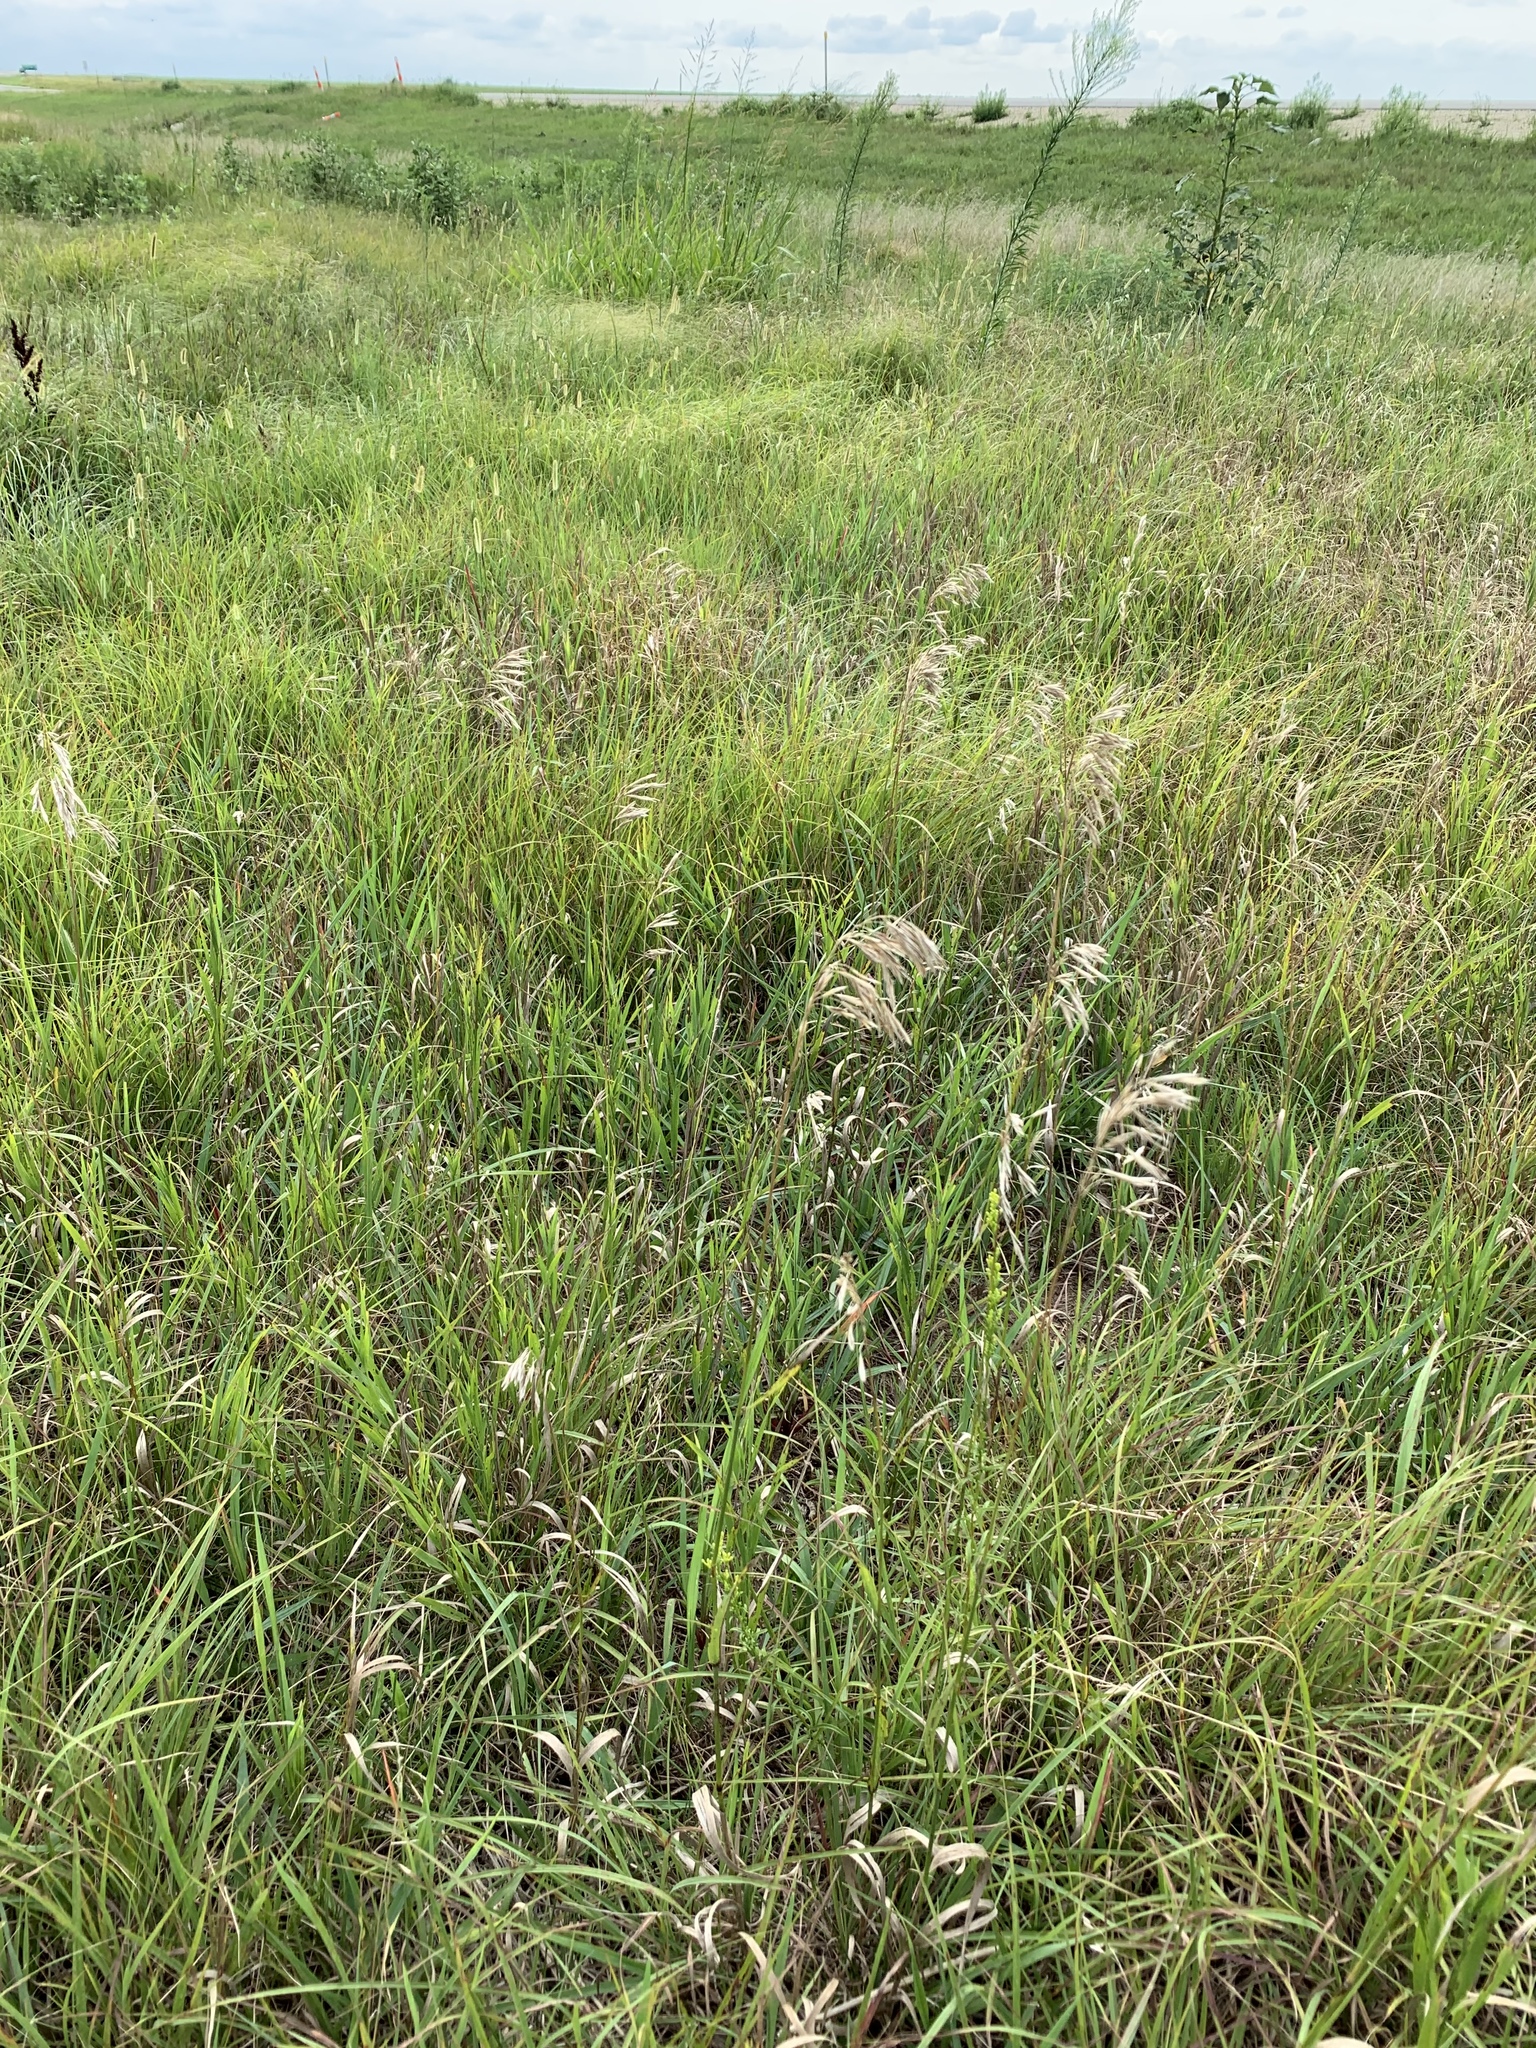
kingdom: Plantae
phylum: Tracheophyta
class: Liliopsida
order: Poales
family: Poaceae
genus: Bromus
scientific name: Bromus inermis
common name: Smooth brome
